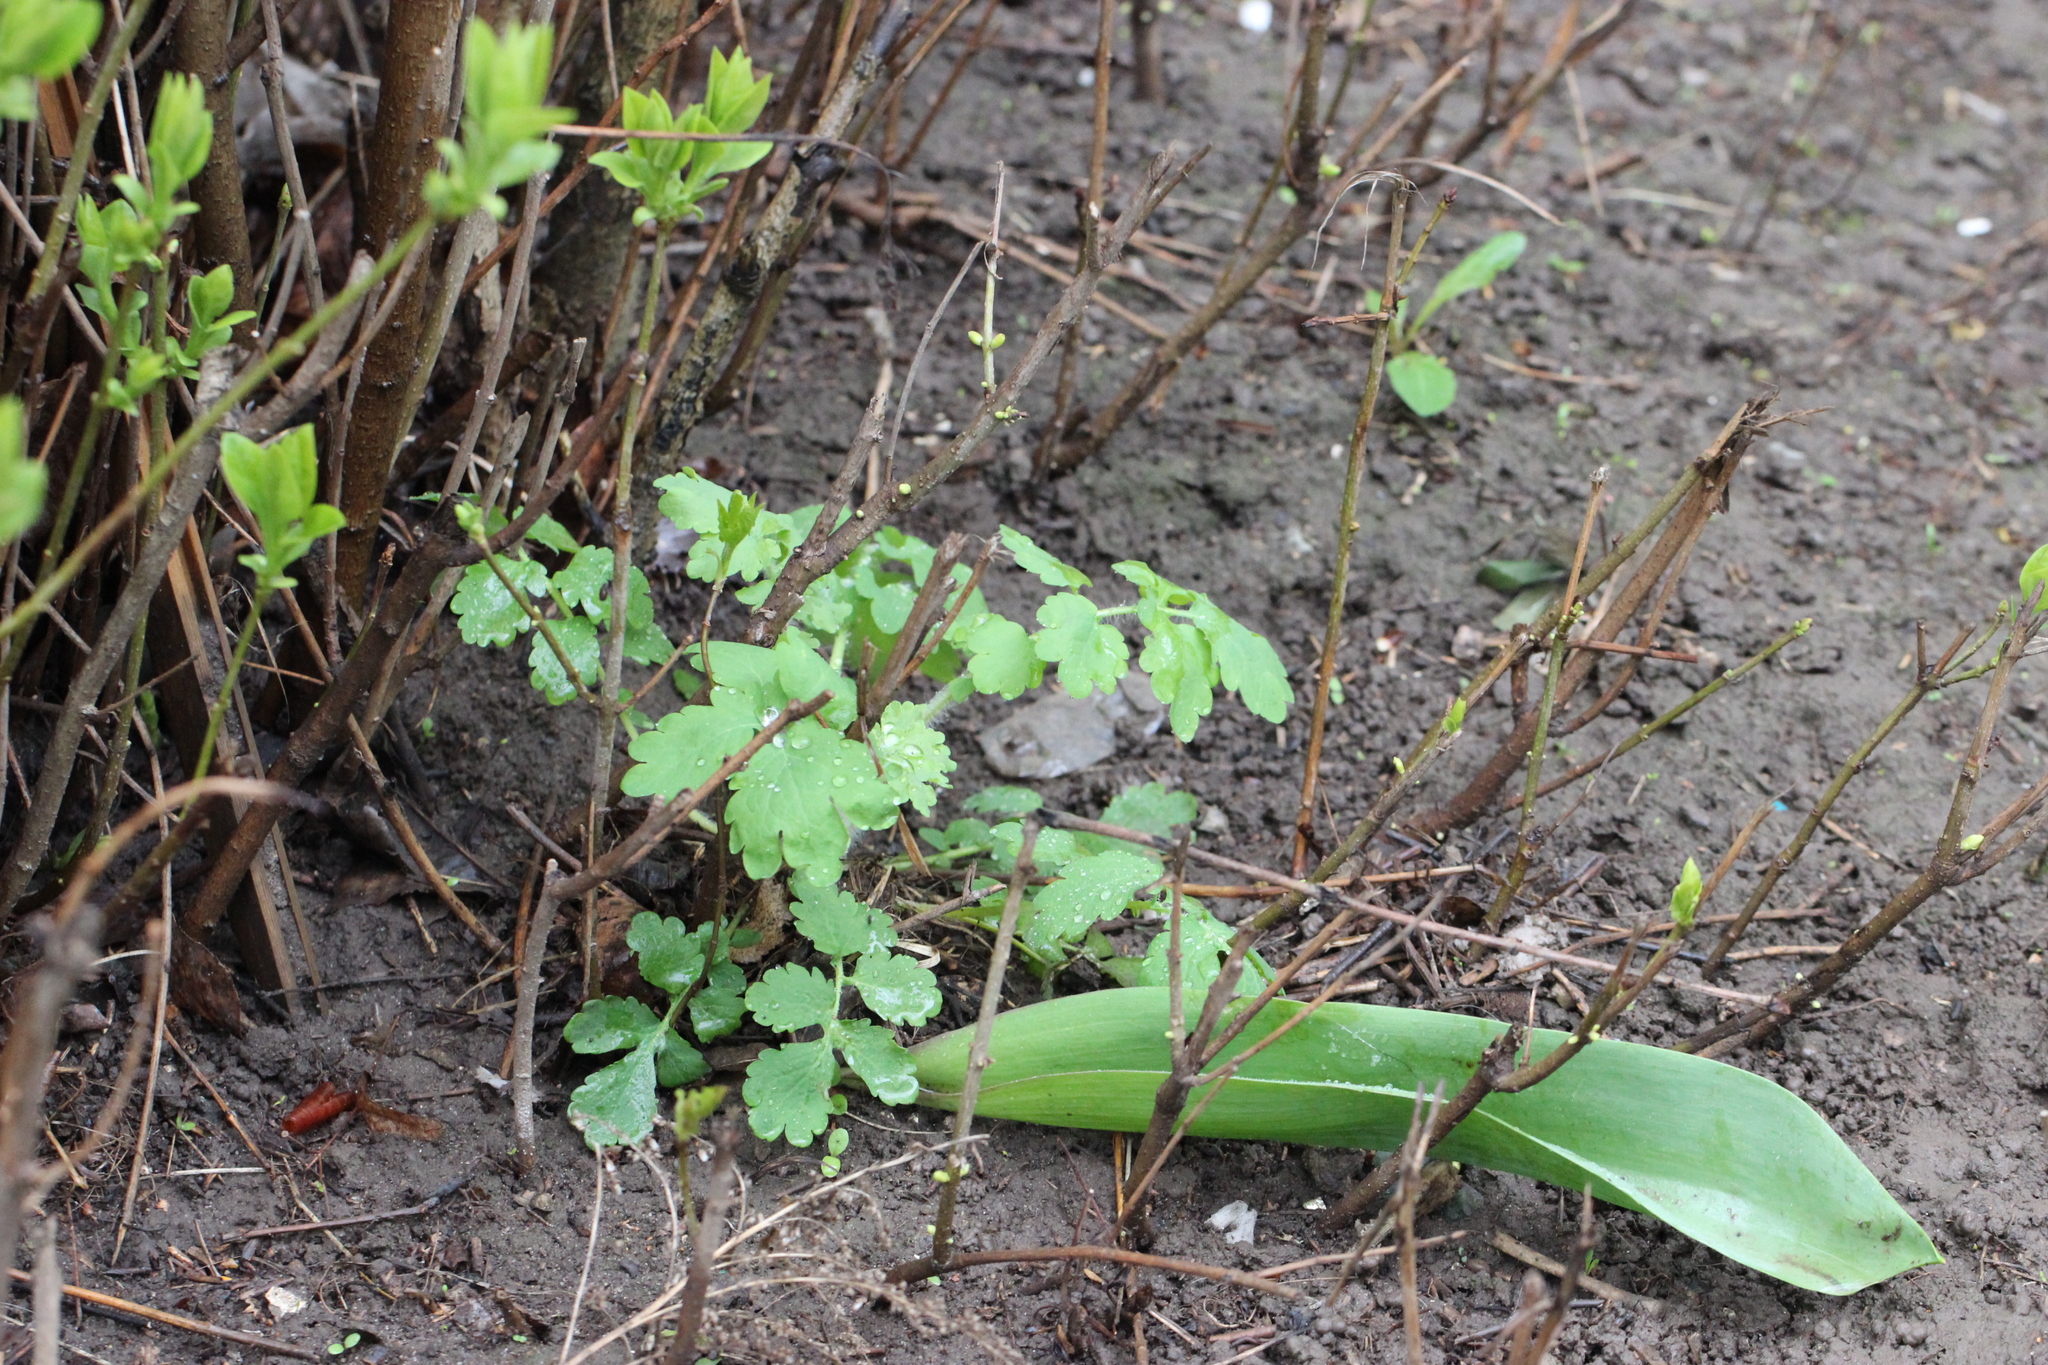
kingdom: Plantae
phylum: Tracheophyta
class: Magnoliopsida
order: Ranunculales
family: Papaveraceae
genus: Chelidonium
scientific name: Chelidonium majus
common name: Greater celandine
